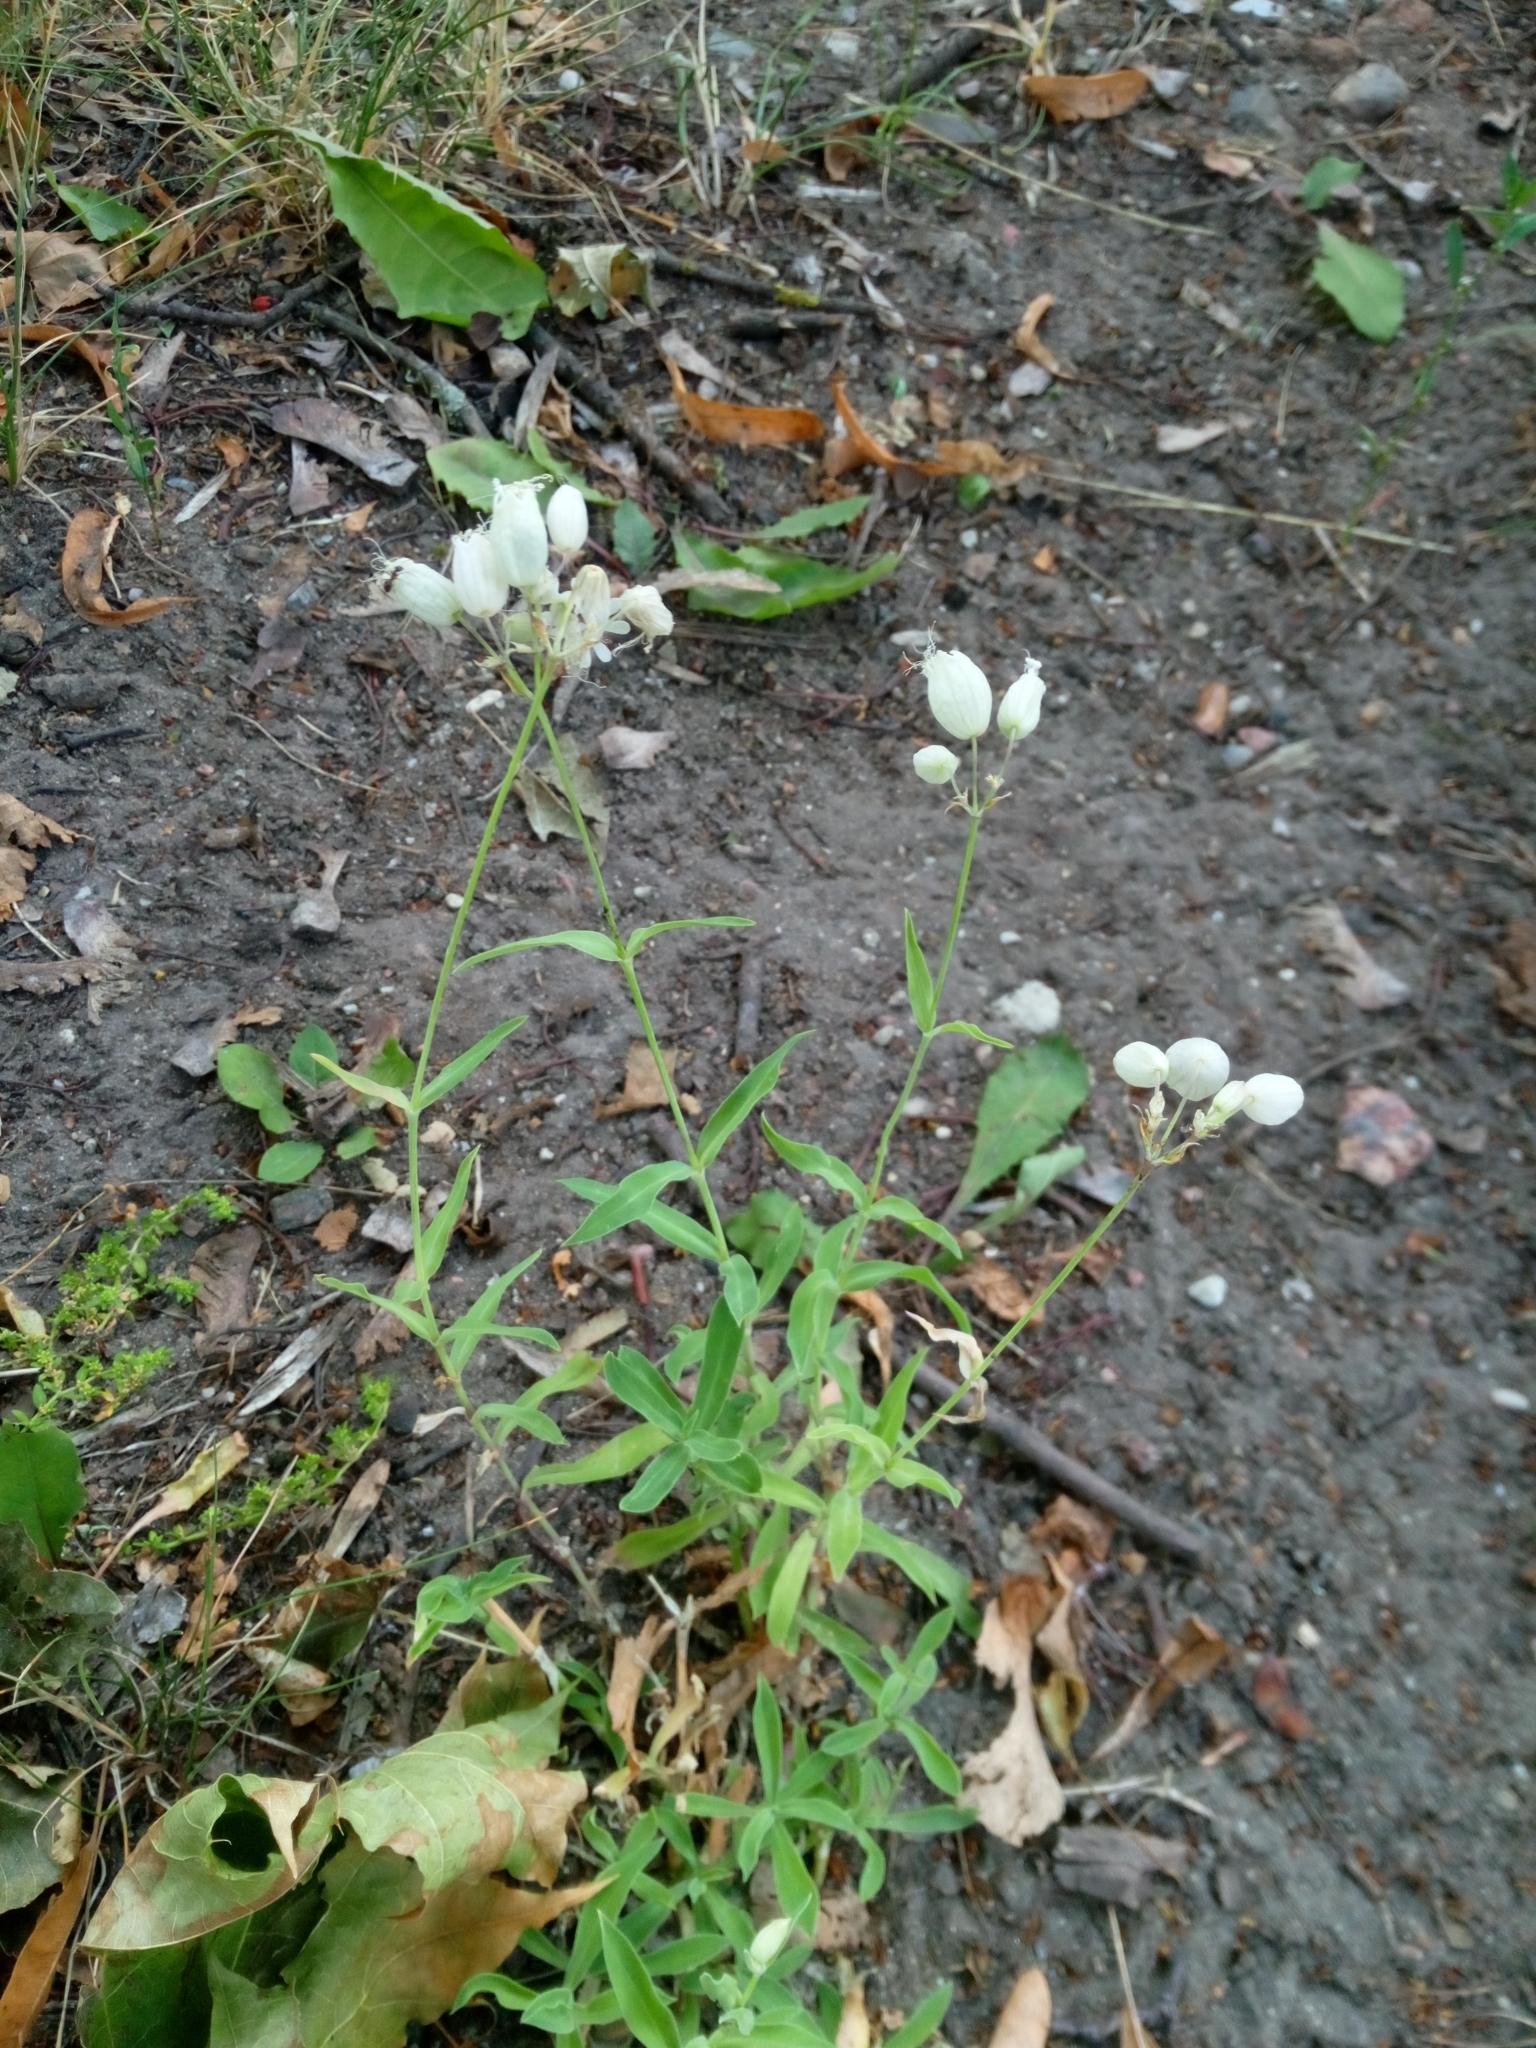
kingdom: Plantae
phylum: Tracheophyta
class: Magnoliopsida
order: Caryophyllales
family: Caryophyllaceae
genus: Silene
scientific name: Silene vulgaris
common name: Bladder campion
